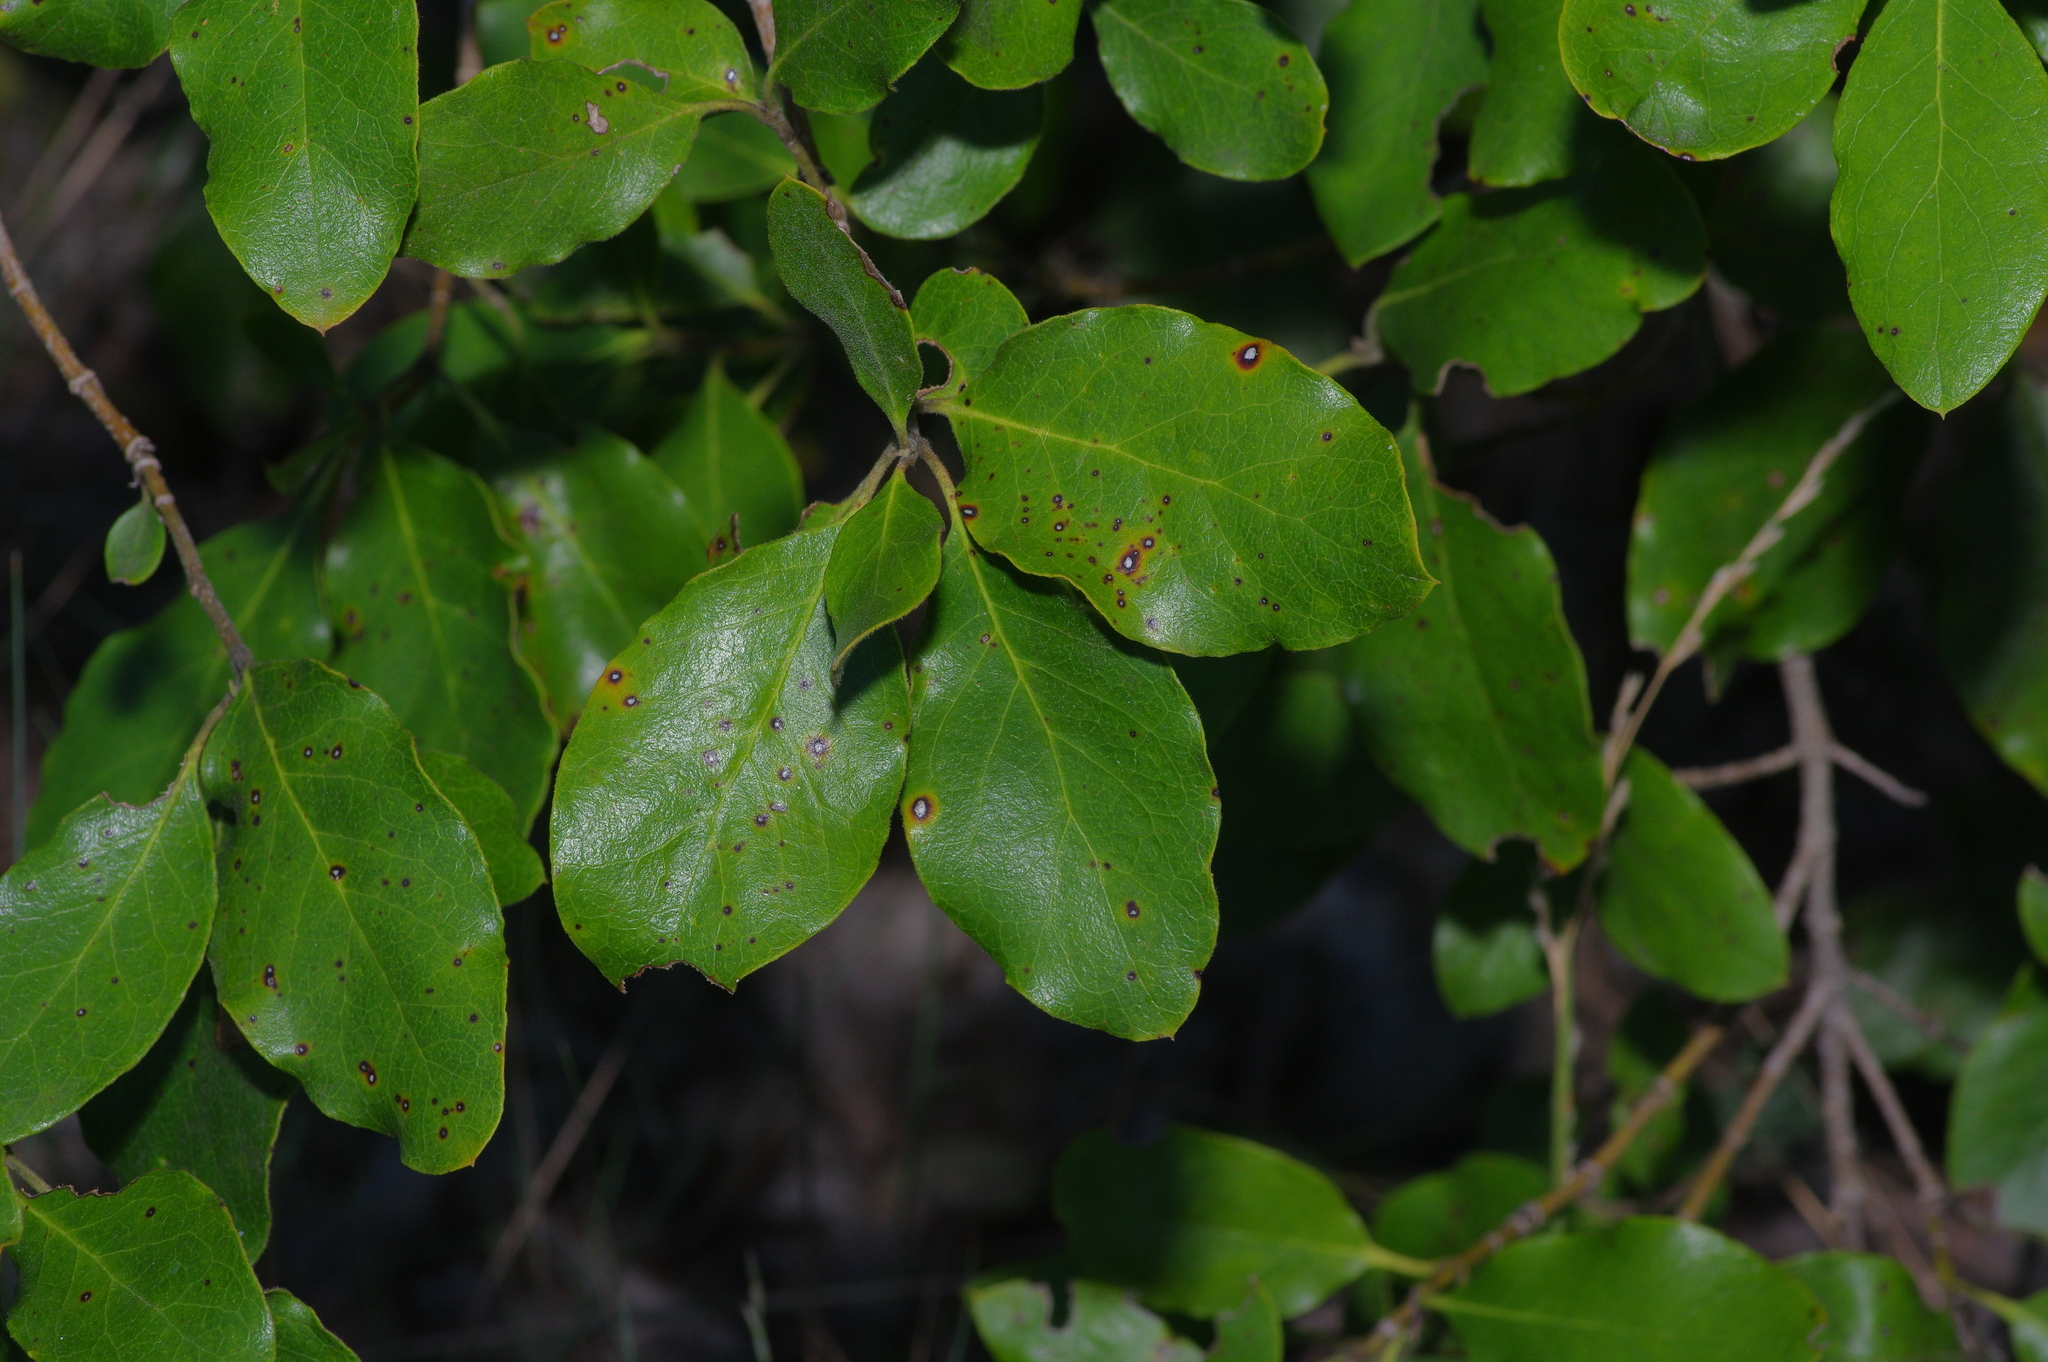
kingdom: Plantae
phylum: Tracheophyta
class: Magnoliopsida
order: Garryales
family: Garryaceae
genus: Garrya
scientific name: Garrya lindheimeri
